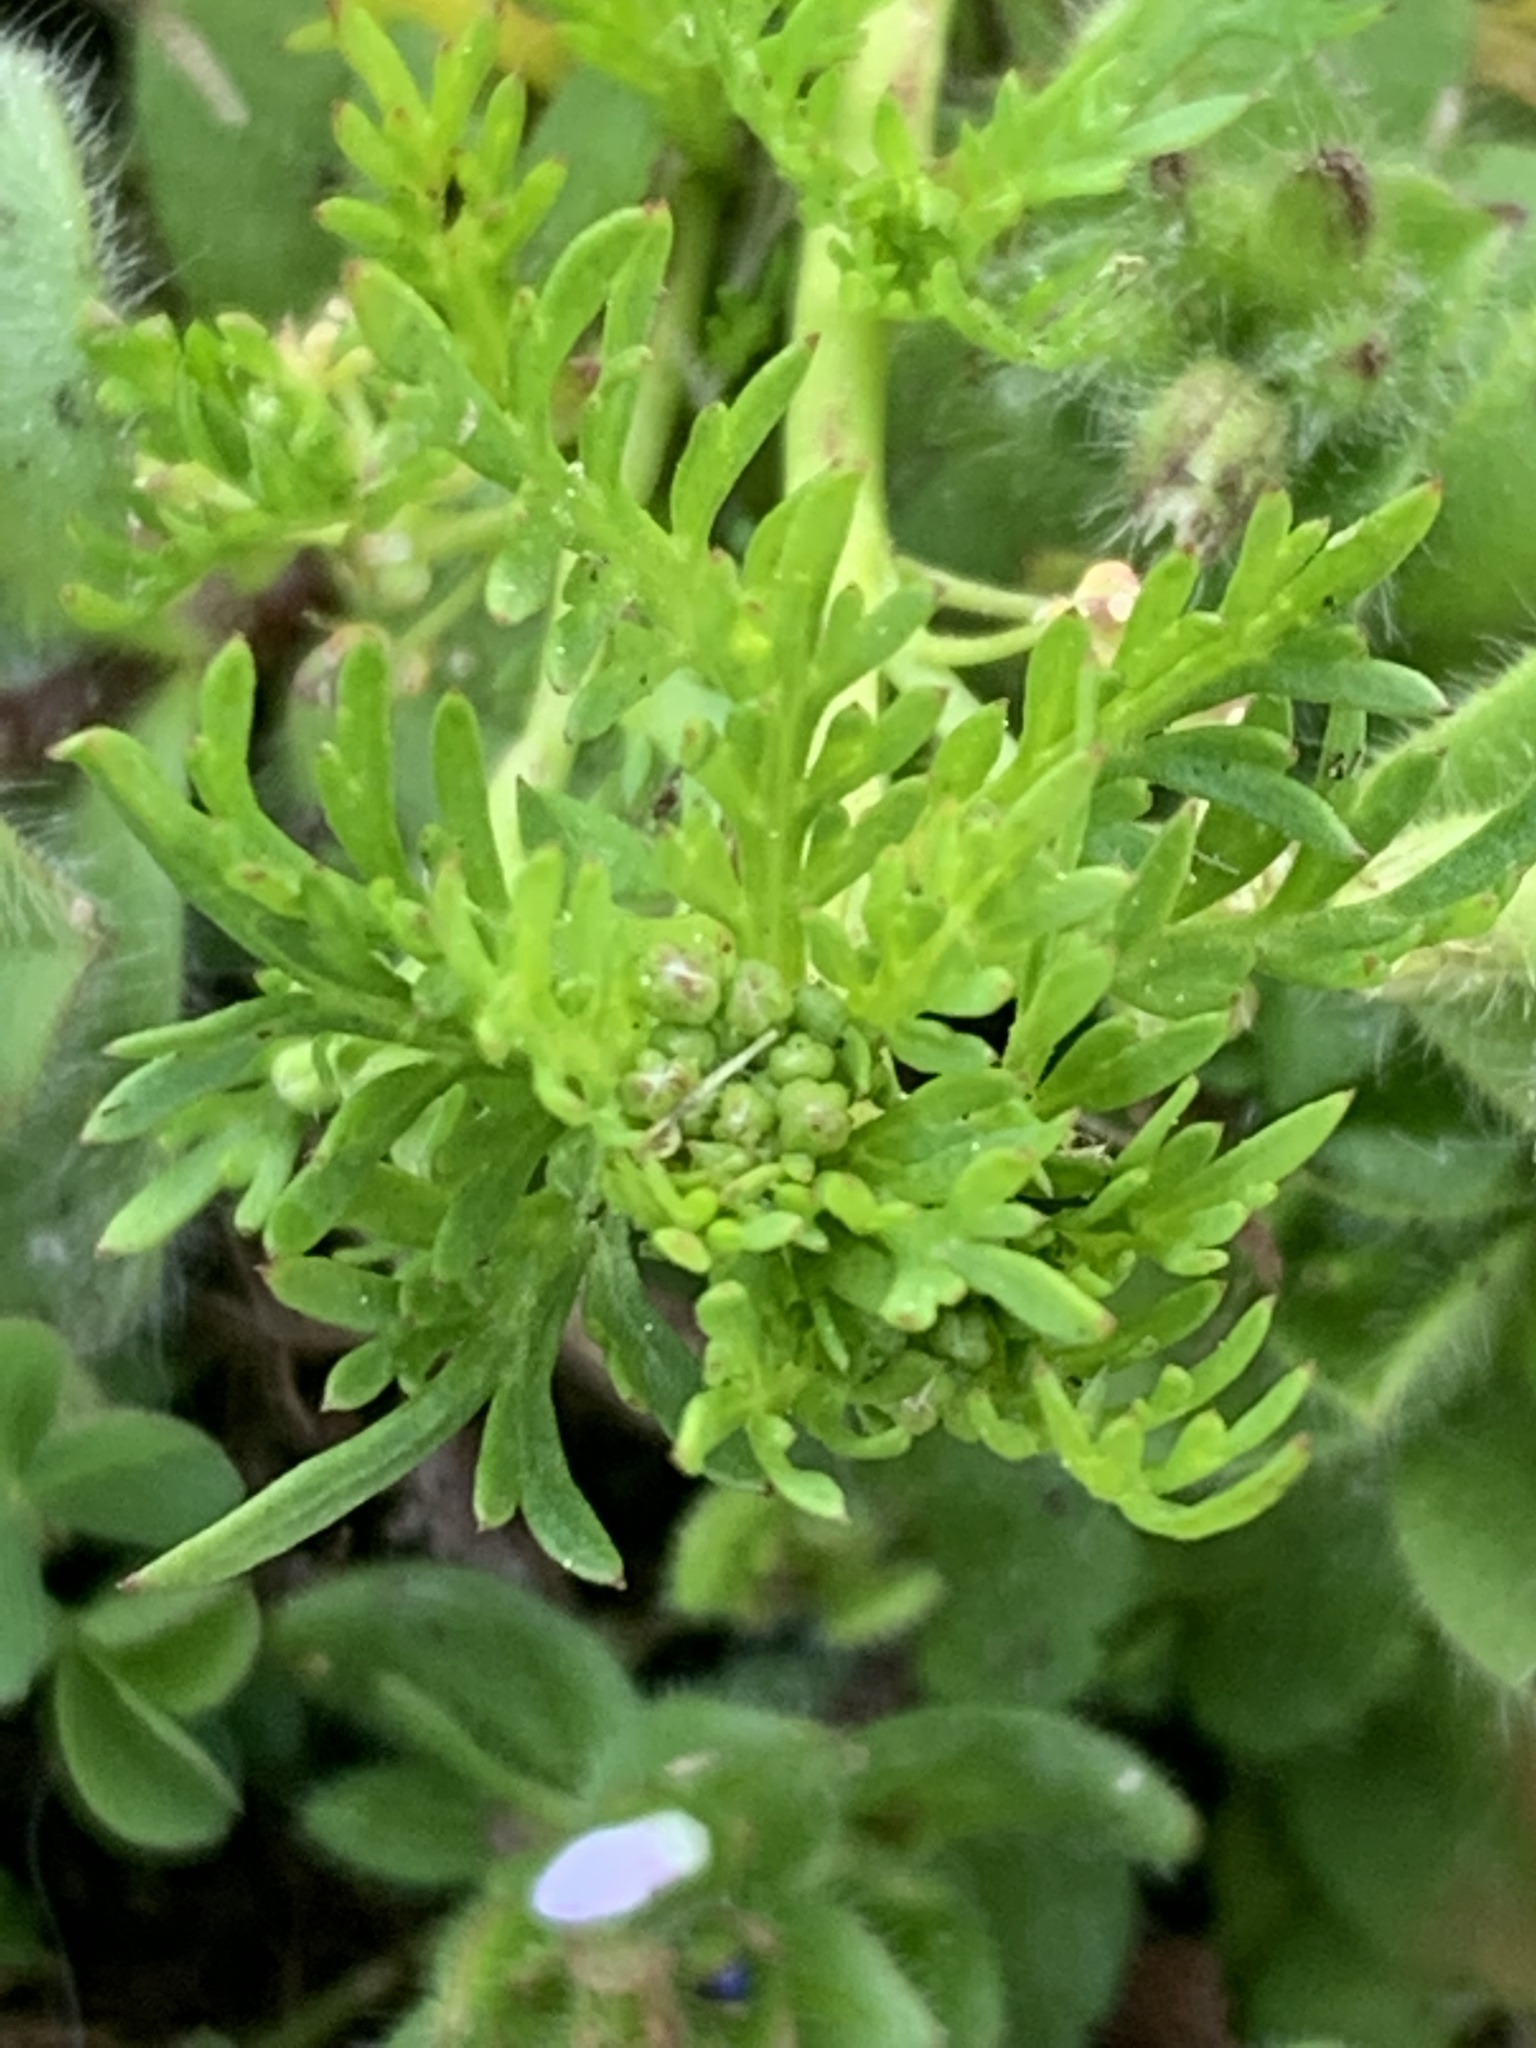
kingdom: Plantae
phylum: Tracheophyta
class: Magnoliopsida
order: Brassicales
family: Brassicaceae
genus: Lepidium
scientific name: Lepidium didymum
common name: Lesser swinecress
